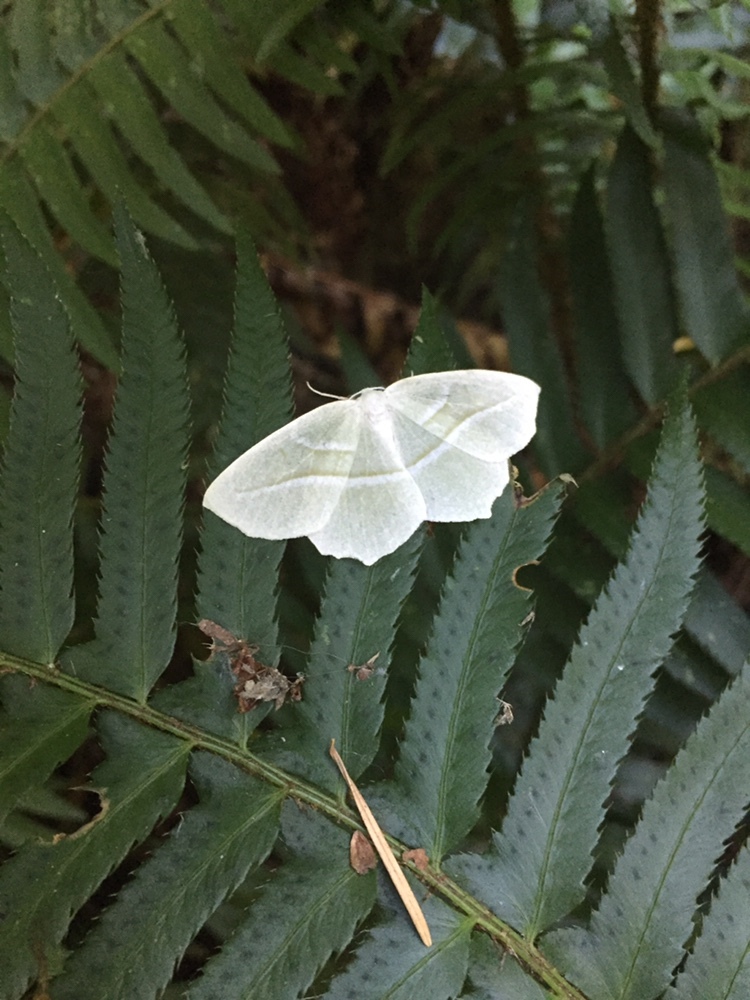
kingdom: Animalia
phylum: Arthropoda
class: Insecta
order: Lepidoptera
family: Geometridae
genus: Campaea
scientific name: Campaea perlata
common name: Fringed looper
